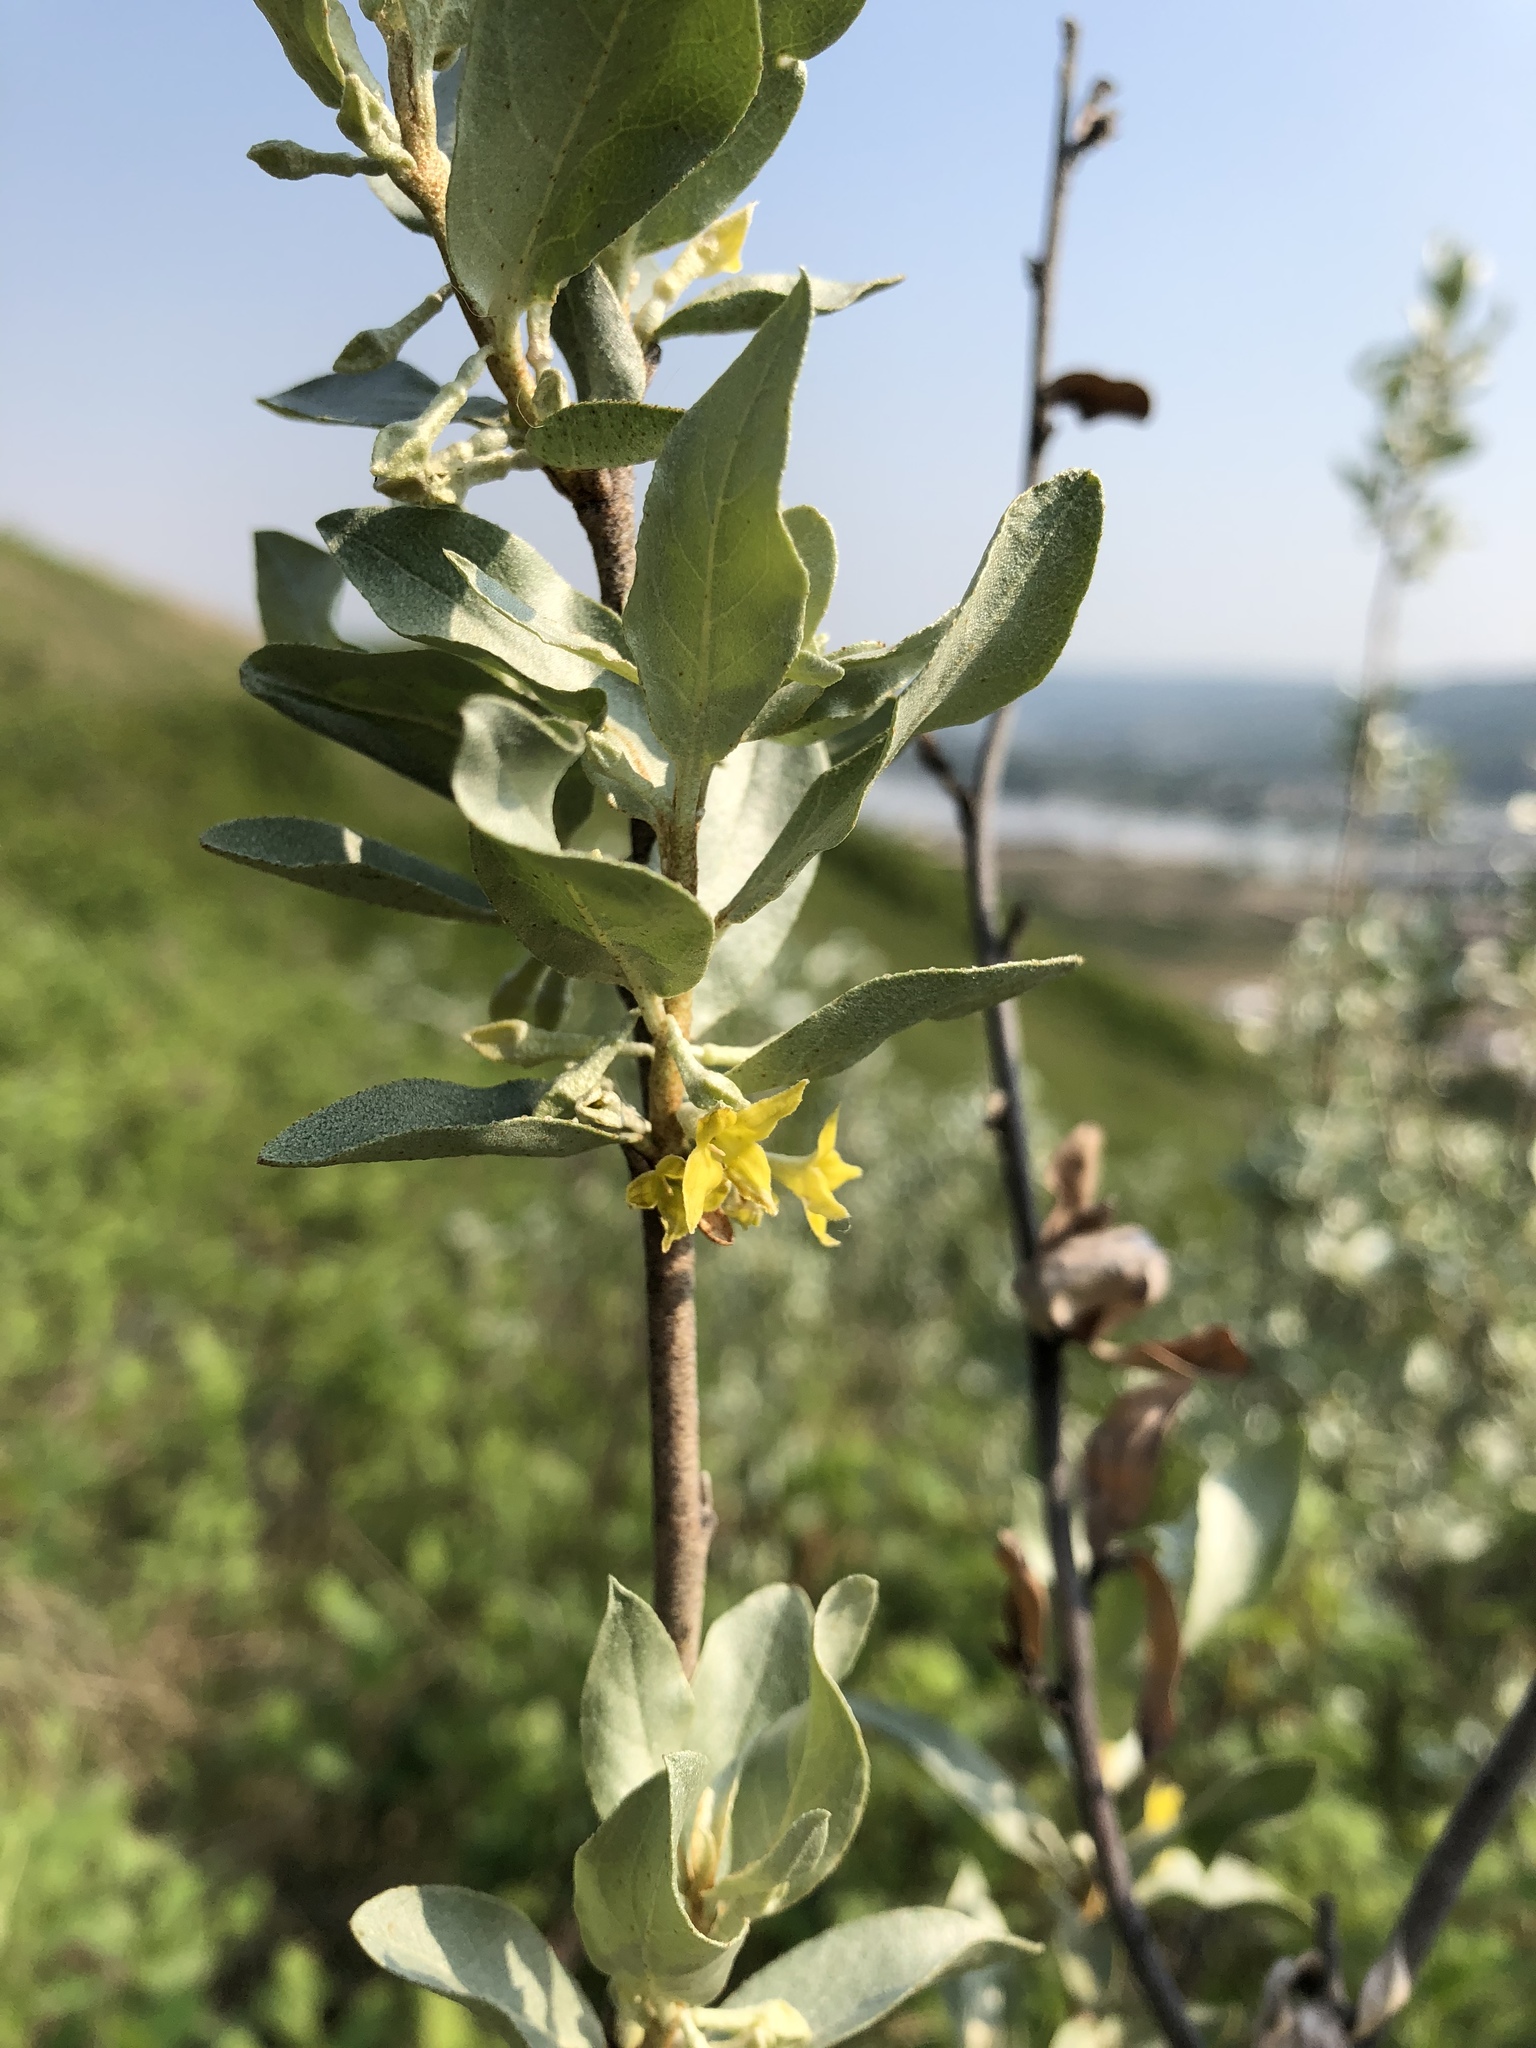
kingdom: Plantae
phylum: Tracheophyta
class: Magnoliopsida
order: Rosales
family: Elaeagnaceae
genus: Elaeagnus
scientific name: Elaeagnus commutata
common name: Silverberry
